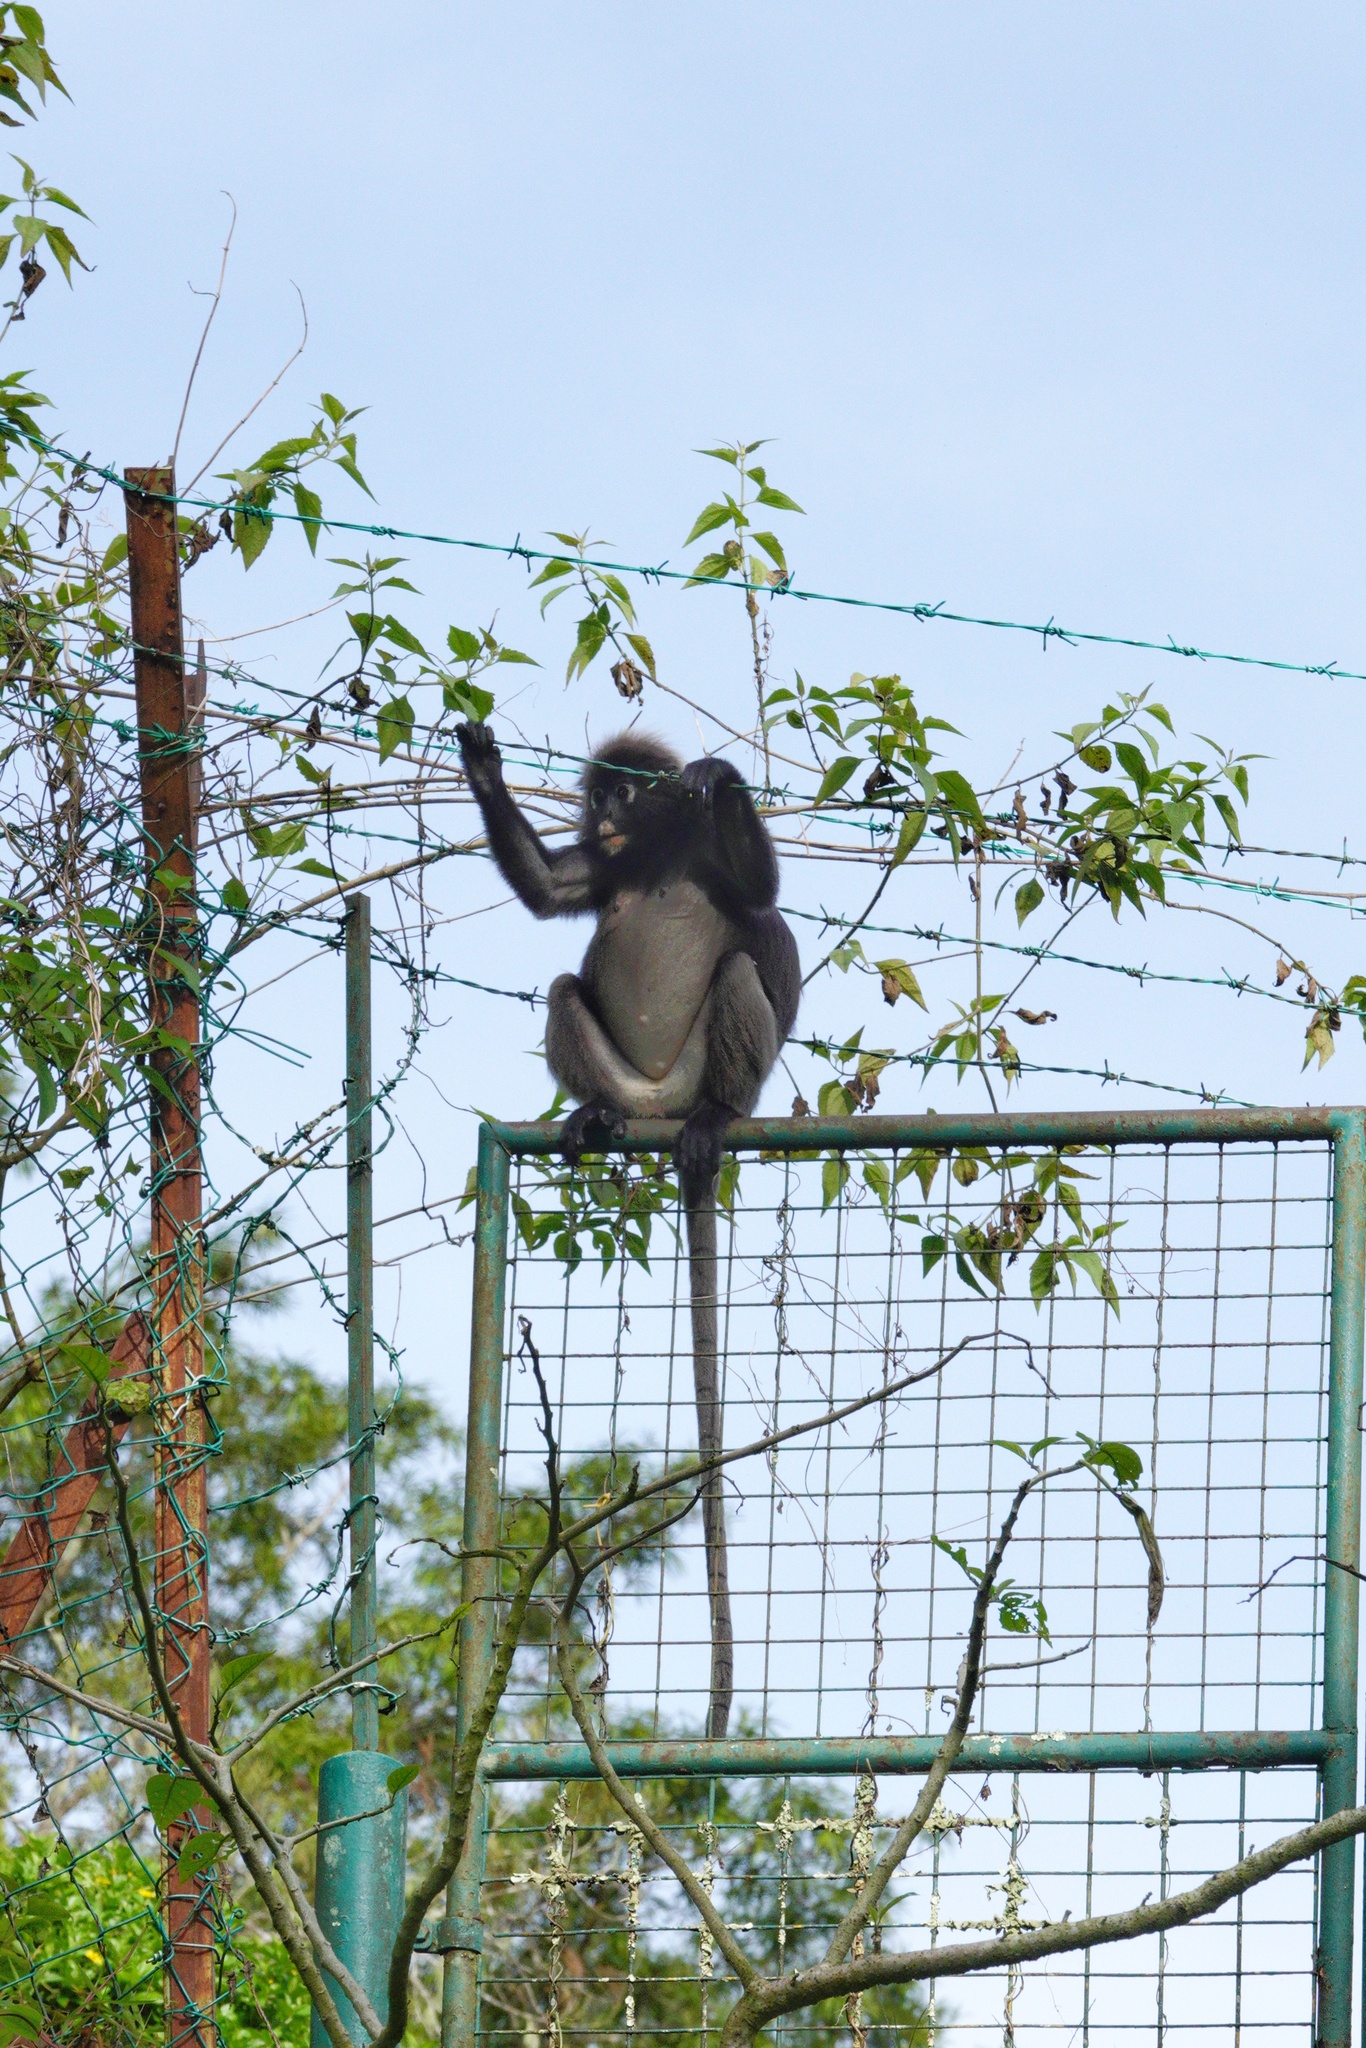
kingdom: Animalia
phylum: Chordata
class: Mammalia
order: Primates
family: Cercopithecidae
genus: Trachypithecus
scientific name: Trachypithecus obscurus
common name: Dusky leaf-monkey
